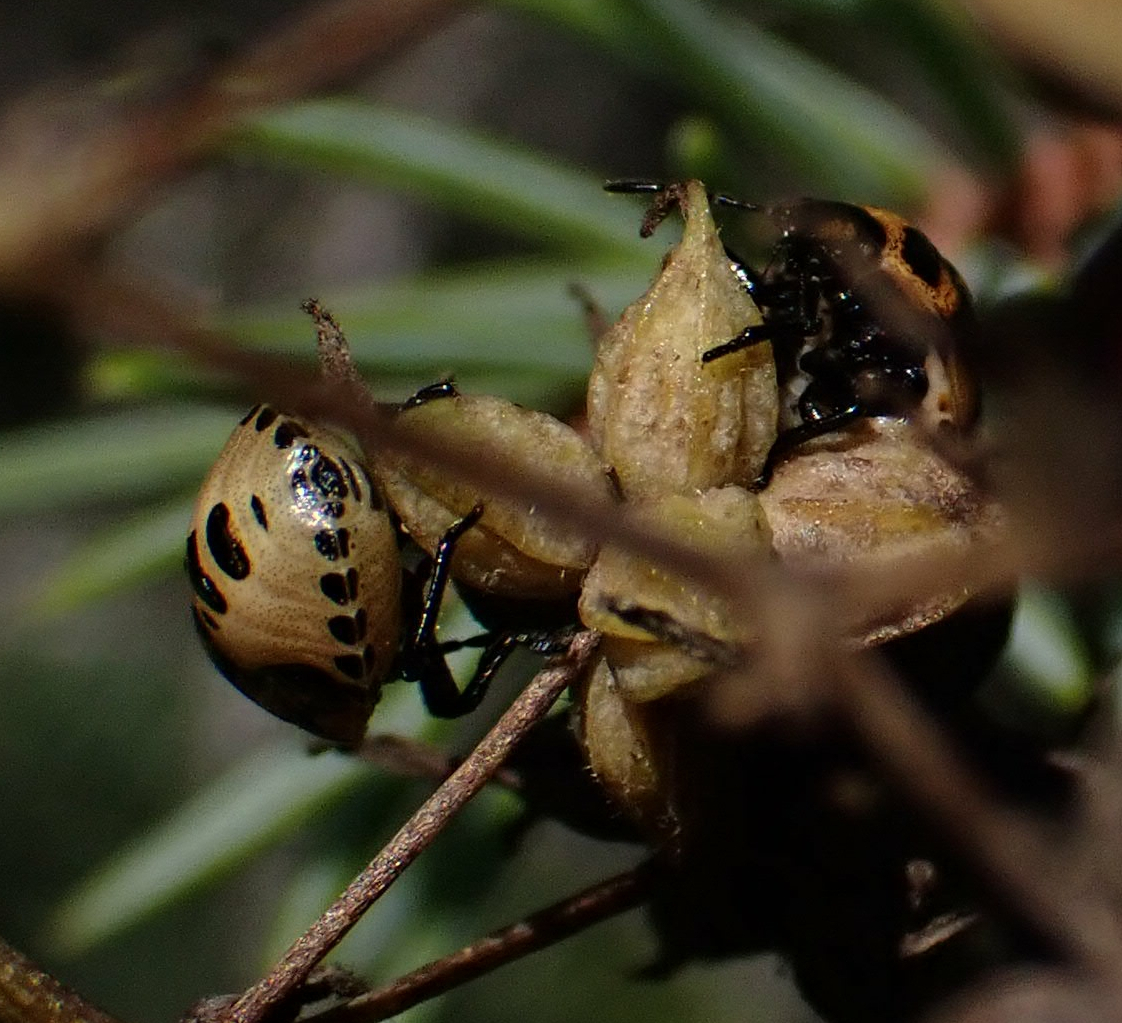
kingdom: Animalia
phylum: Arthropoda
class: Insecta
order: Hemiptera
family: Pentatomidae
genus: Cosmopepla
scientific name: Cosmopepla lintneriana
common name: Twice-stabbed stink bug
